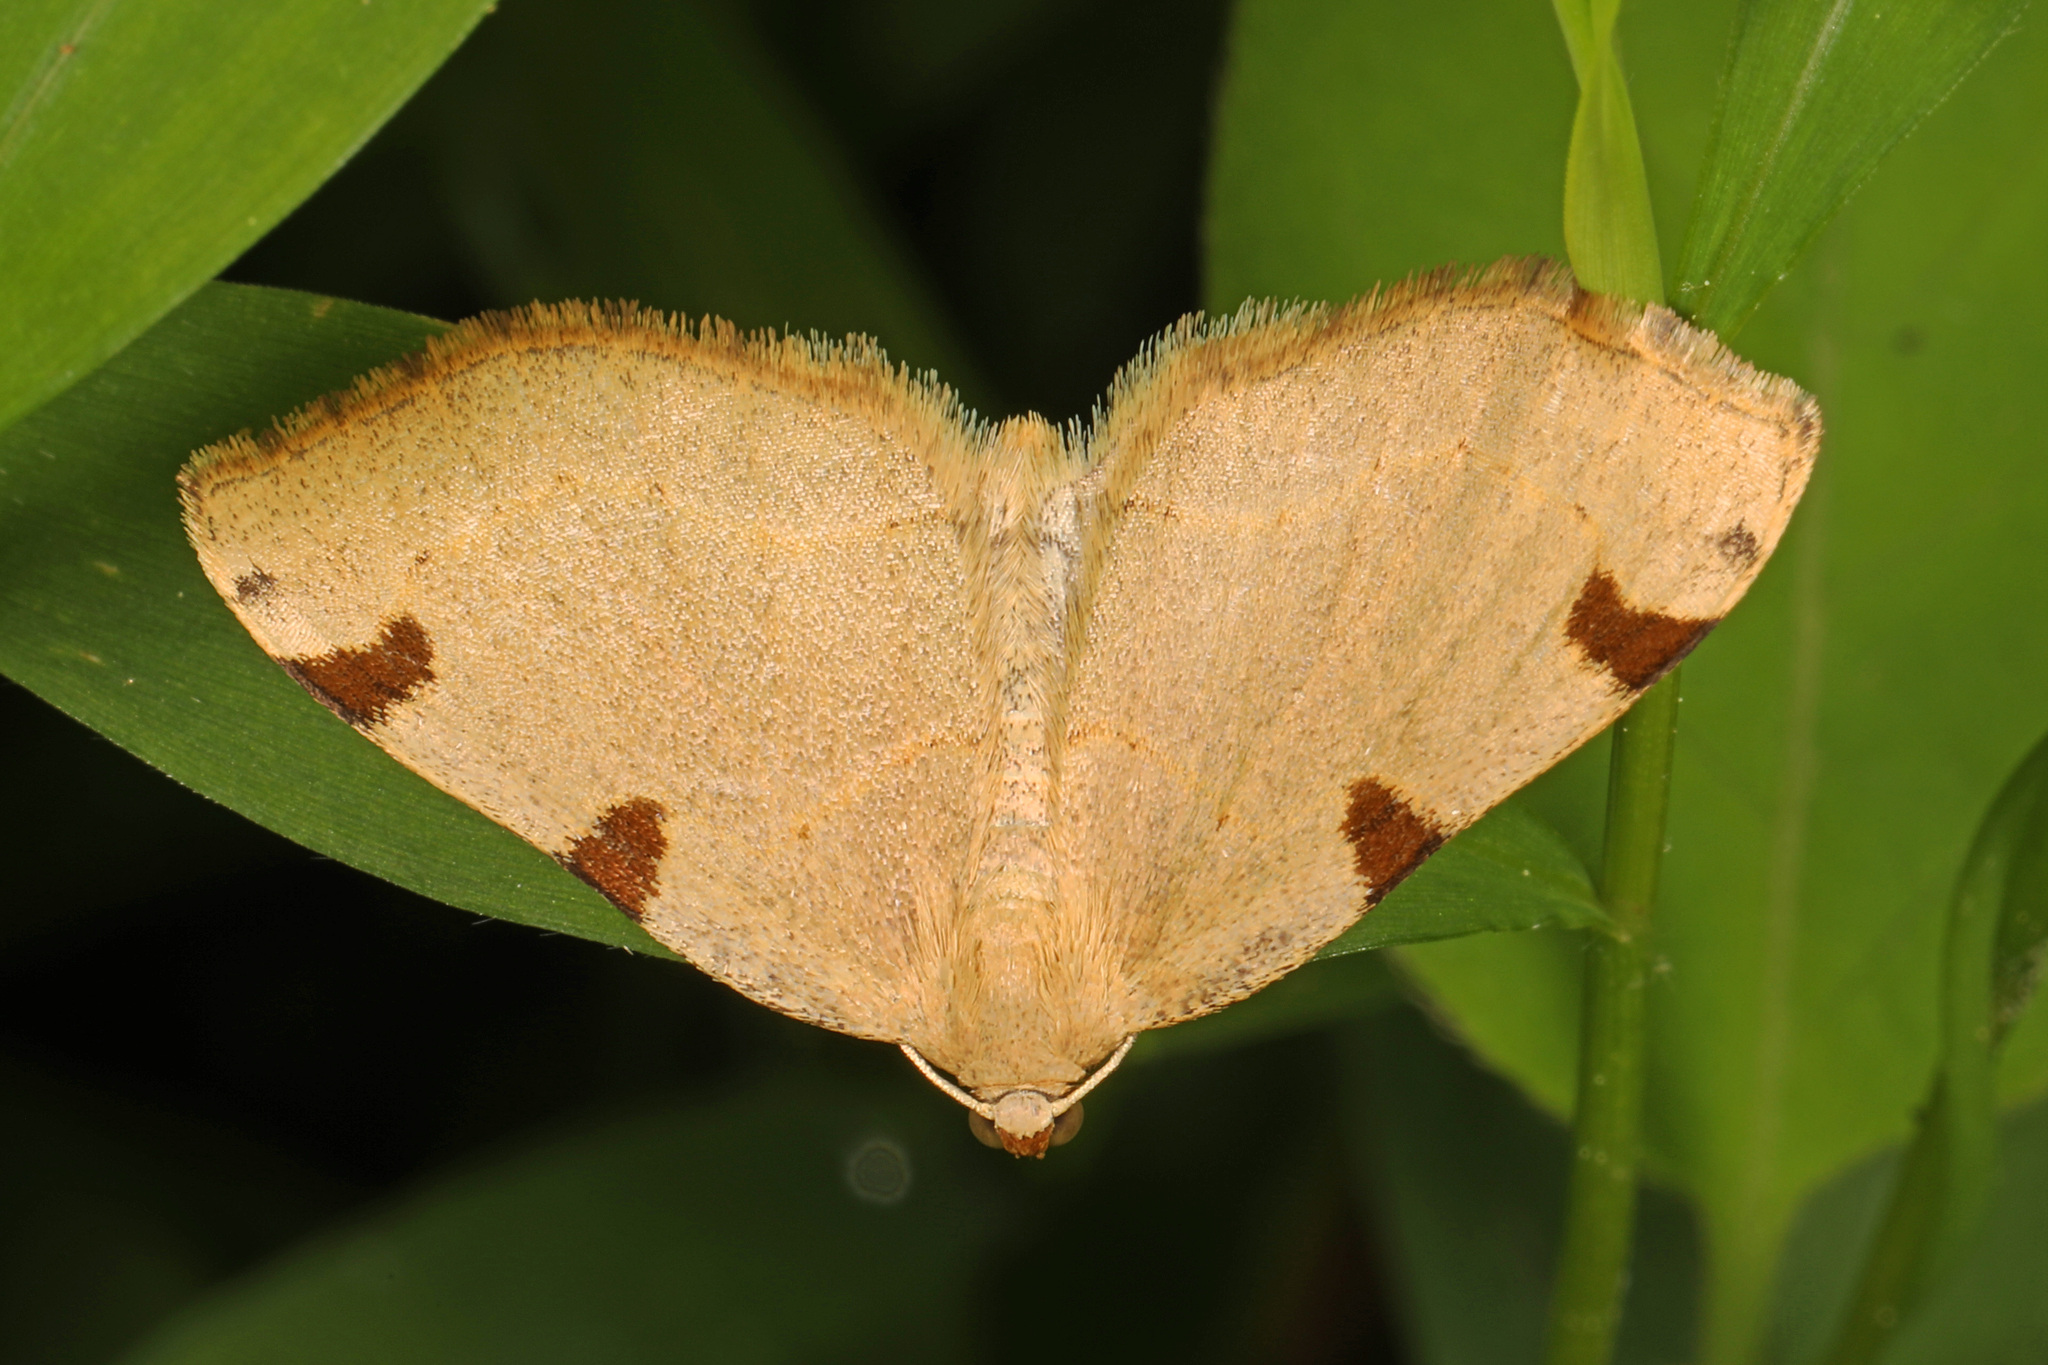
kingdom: Animalia
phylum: Arthropoda
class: Insecta
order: Lepidoptera
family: Geometridae
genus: Heterophleps
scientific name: Heterophleps triguttaria
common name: Three-spotted fillip
